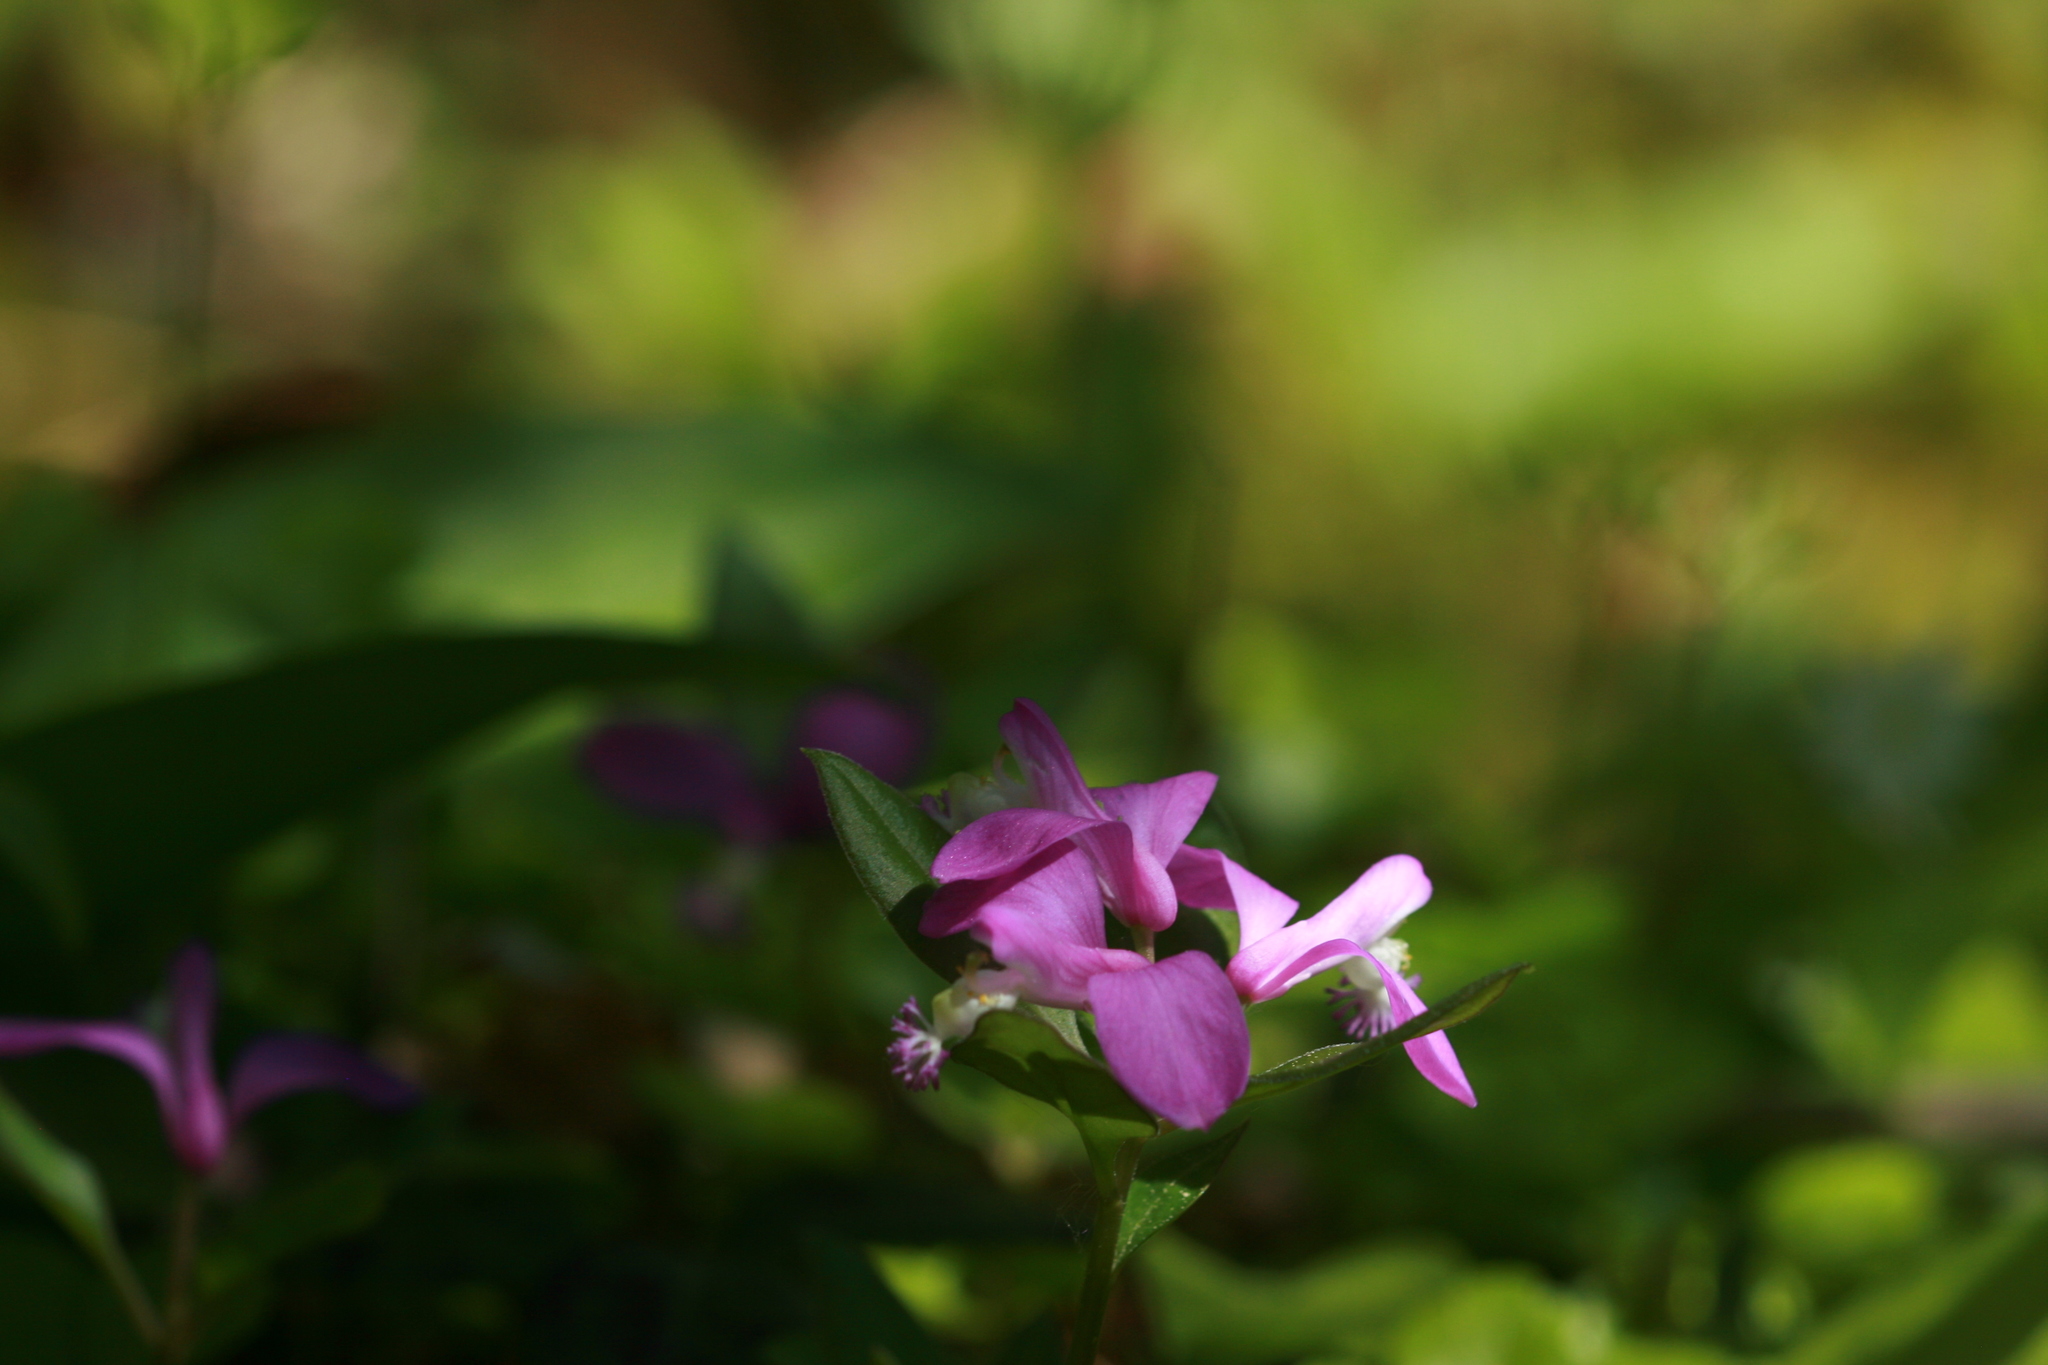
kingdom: Plantae
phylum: Tracheophyta
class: Magnoliopsida
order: Fabales
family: Polygalaceae
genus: Polygaloides
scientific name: Polygaloides paucifolia
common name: Bird-on-the-wing
